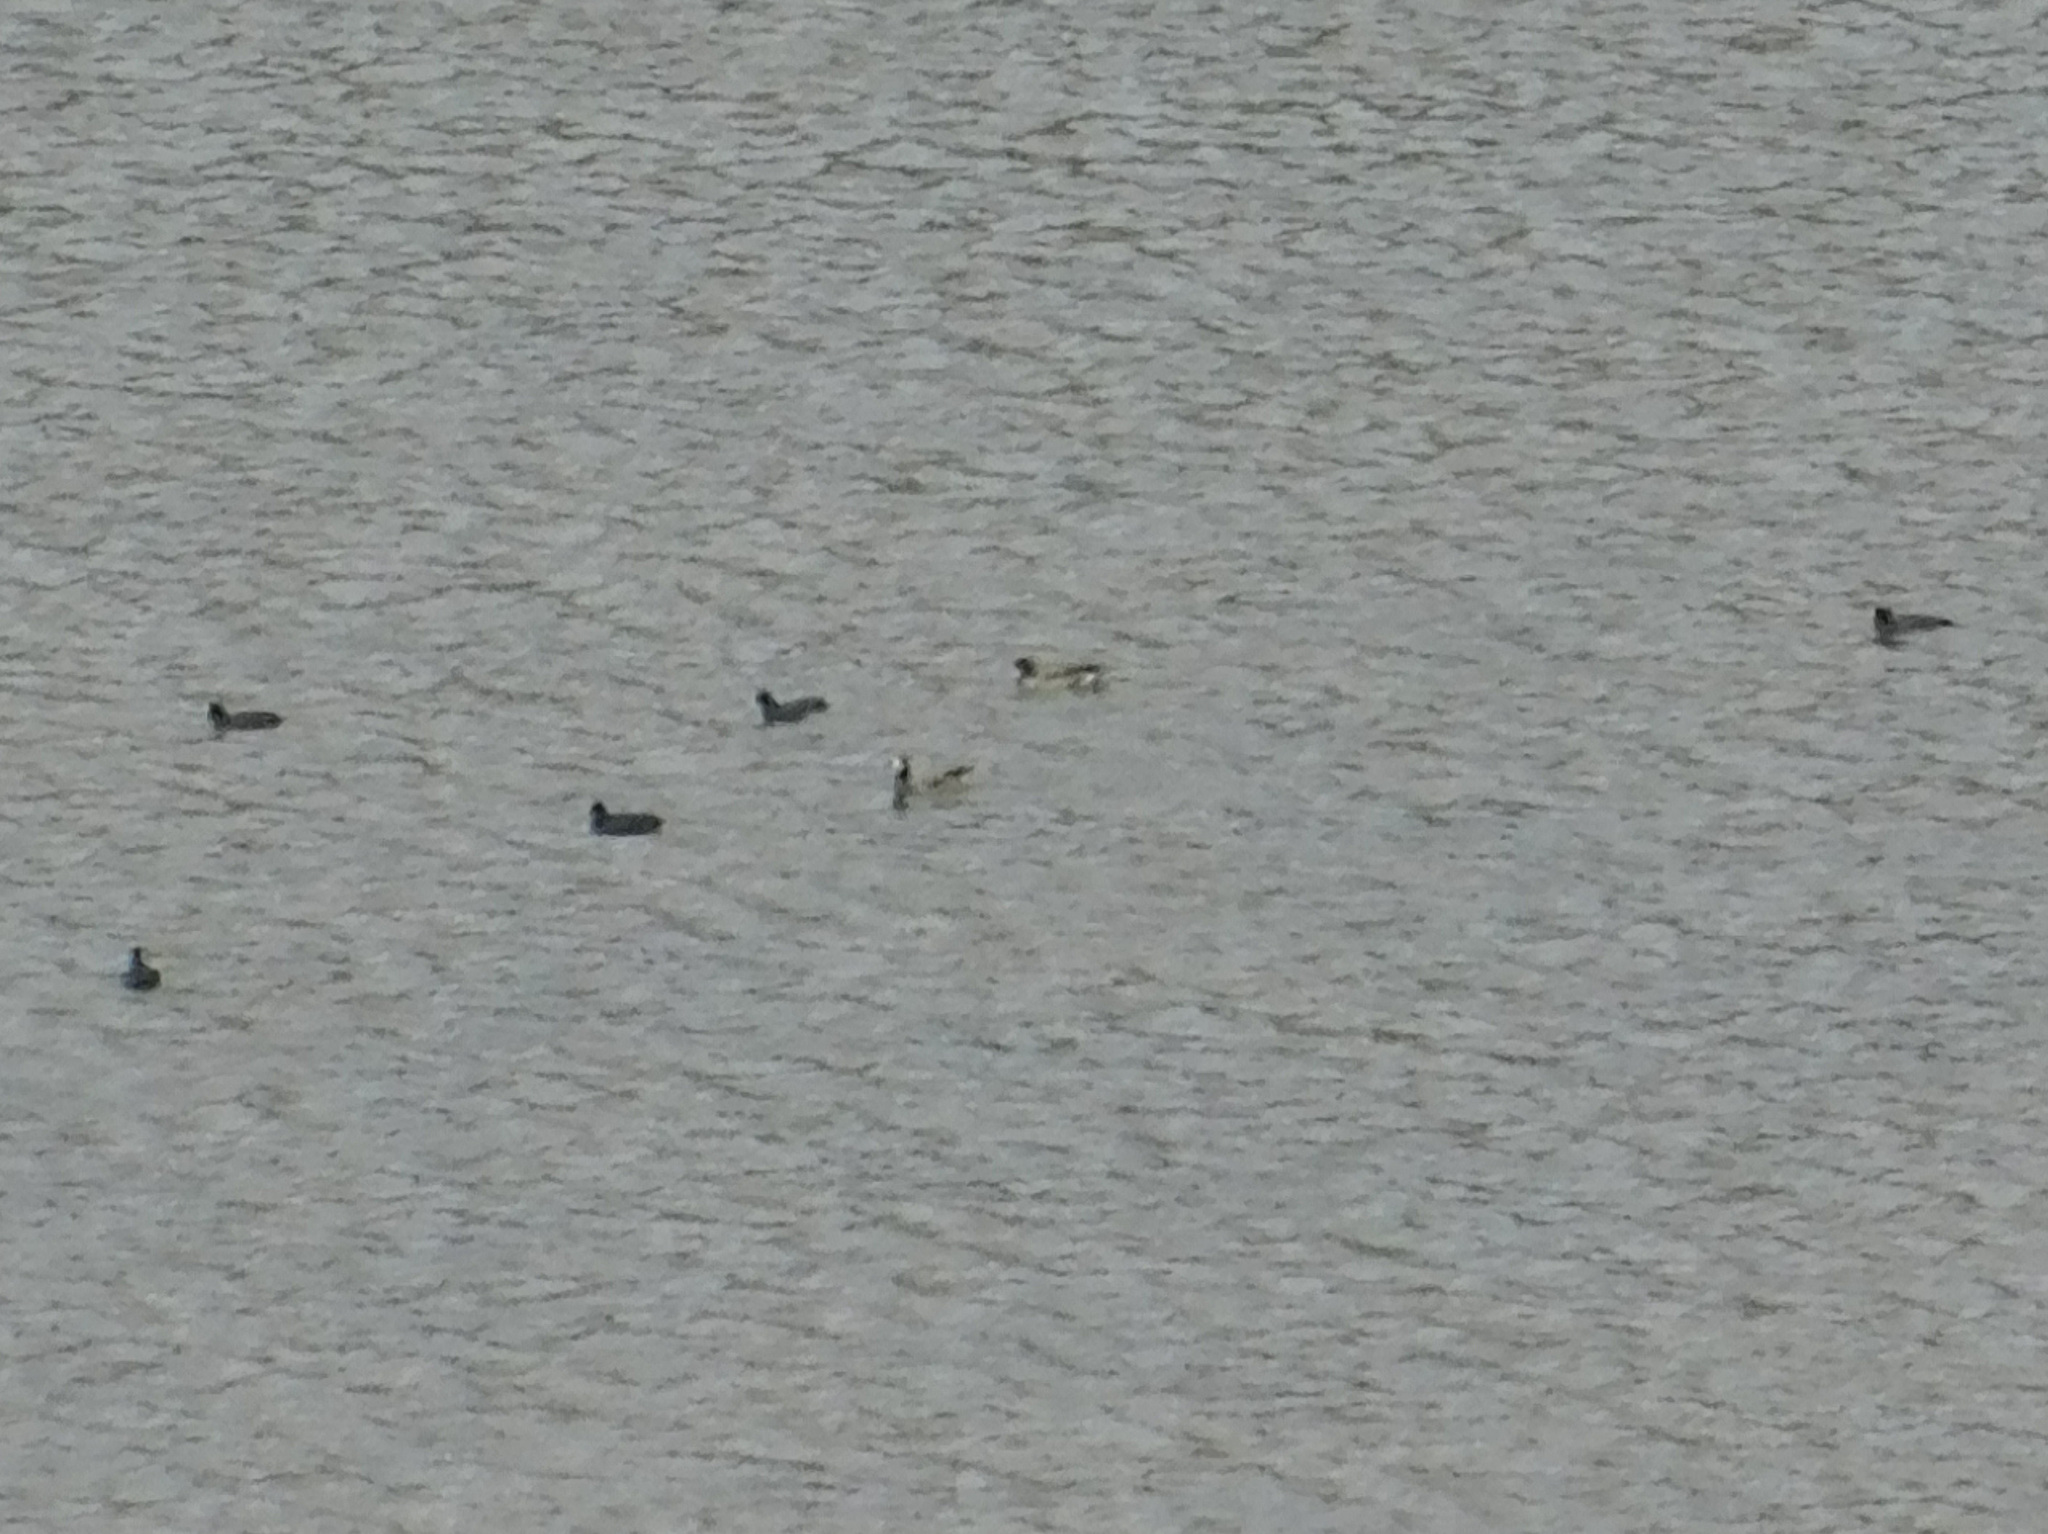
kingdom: Animalia
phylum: Chordata
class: Aves
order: Anseriformes
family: Anatidae
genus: Mareca
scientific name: Mareca sibilatrix
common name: Chiloe wigeon
